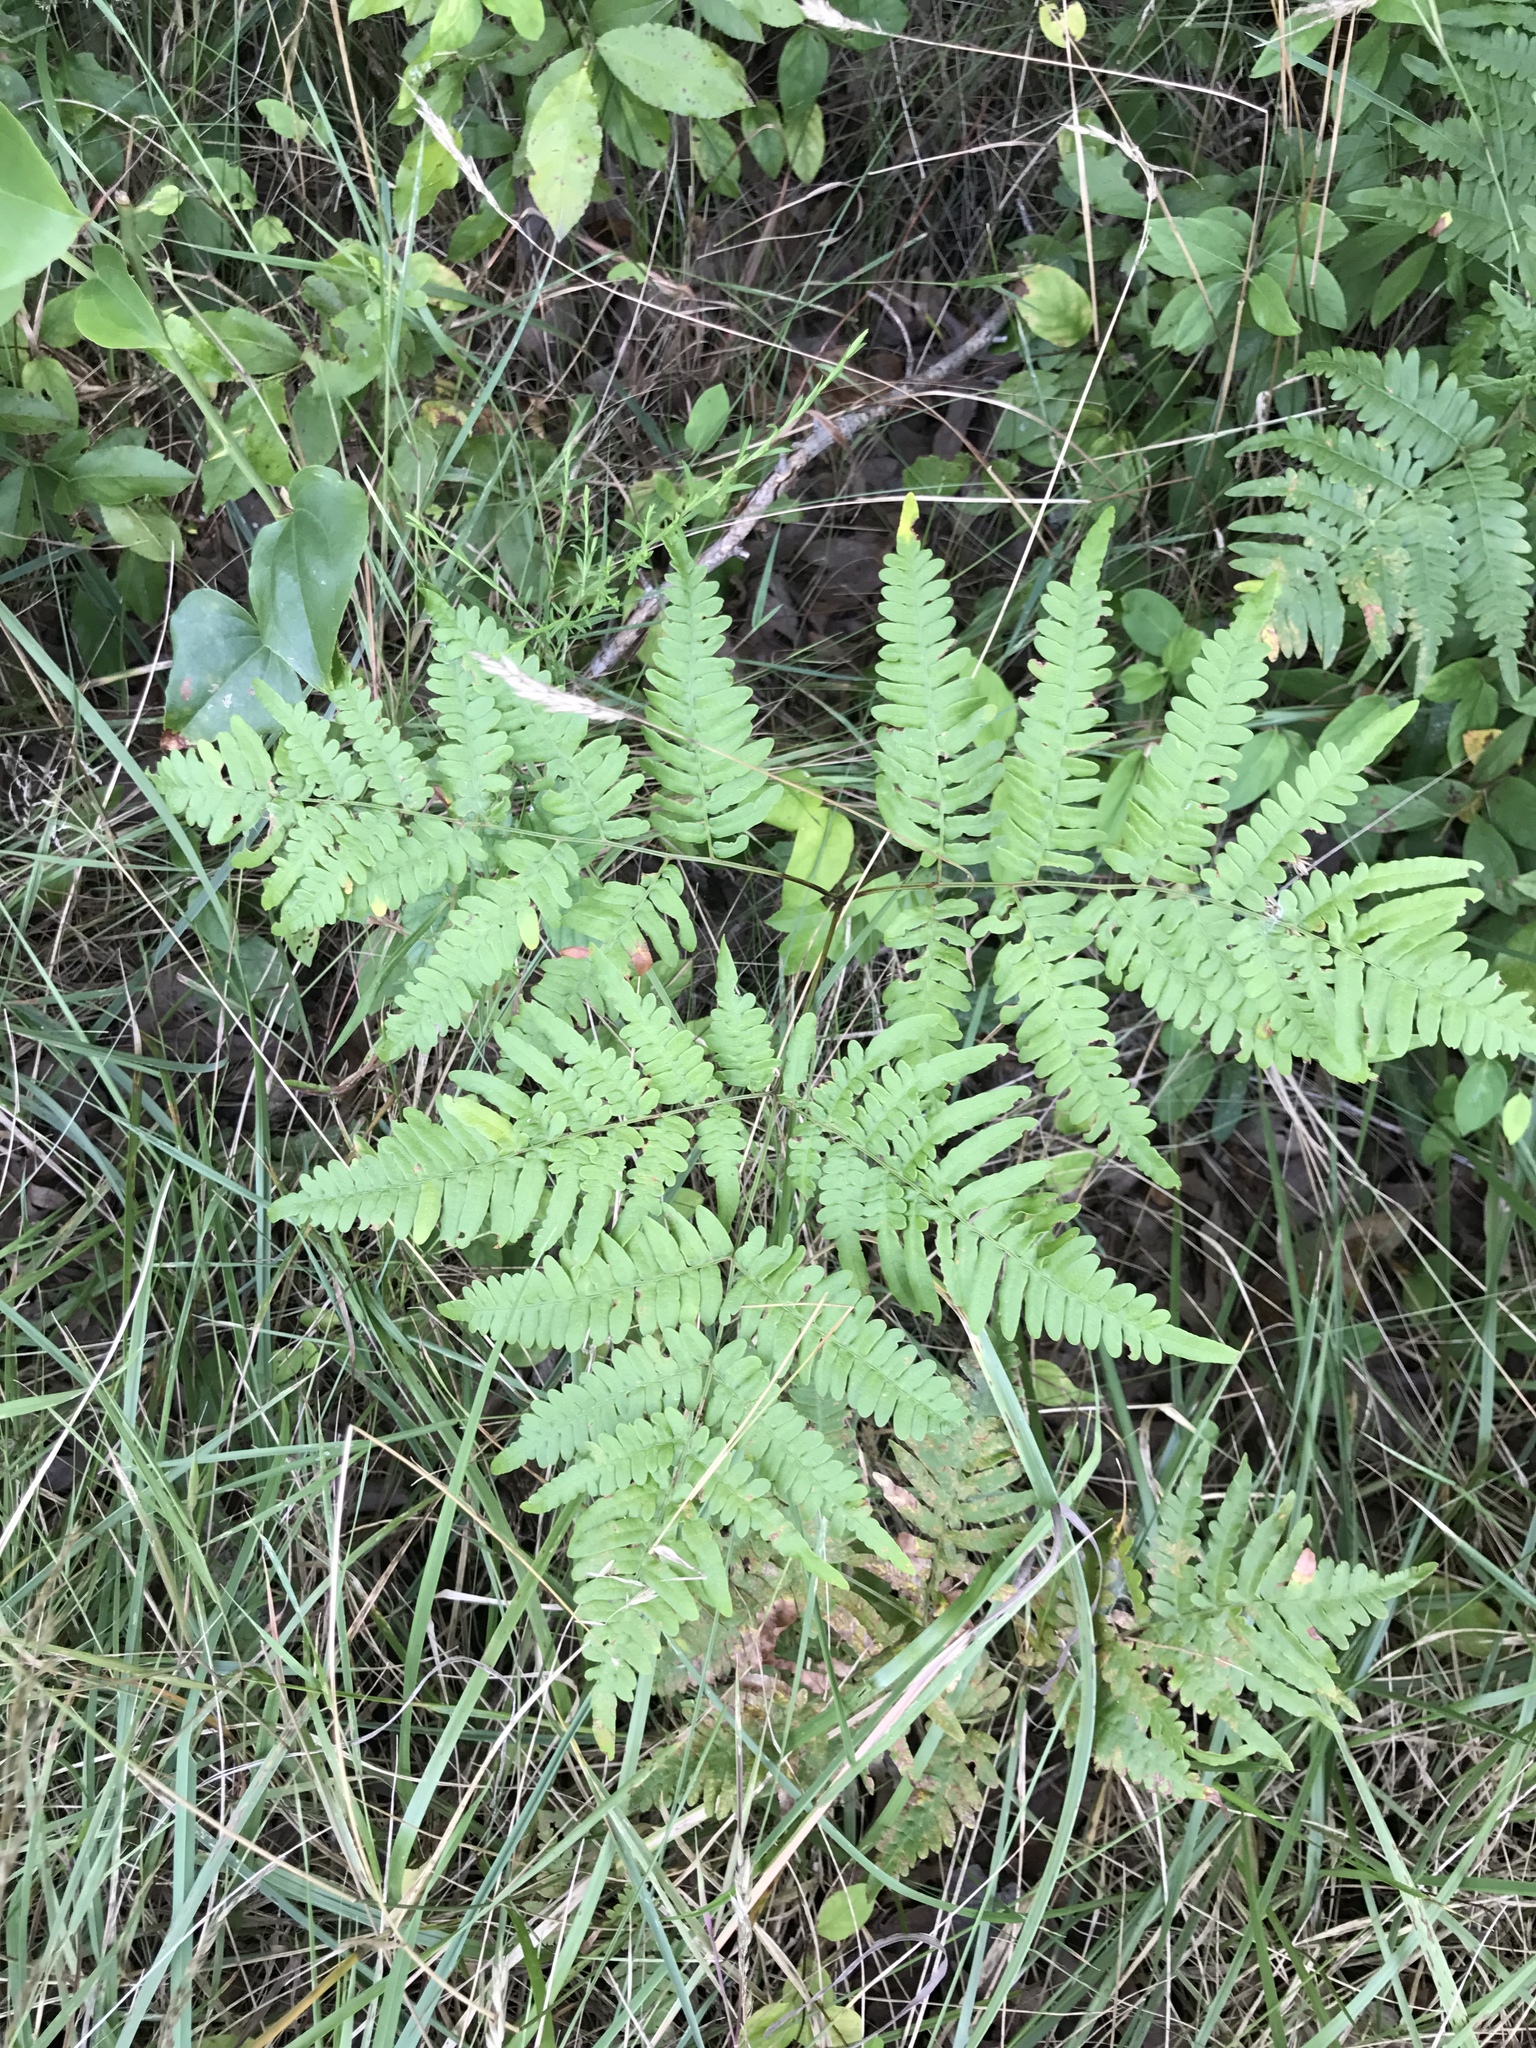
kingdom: Plantae
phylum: Tracheophyta
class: Polypodiopsida
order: Polypodiales
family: Dennstaedtiaceae
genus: Pteridium
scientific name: Pteridium aquilinum
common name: Bracken
